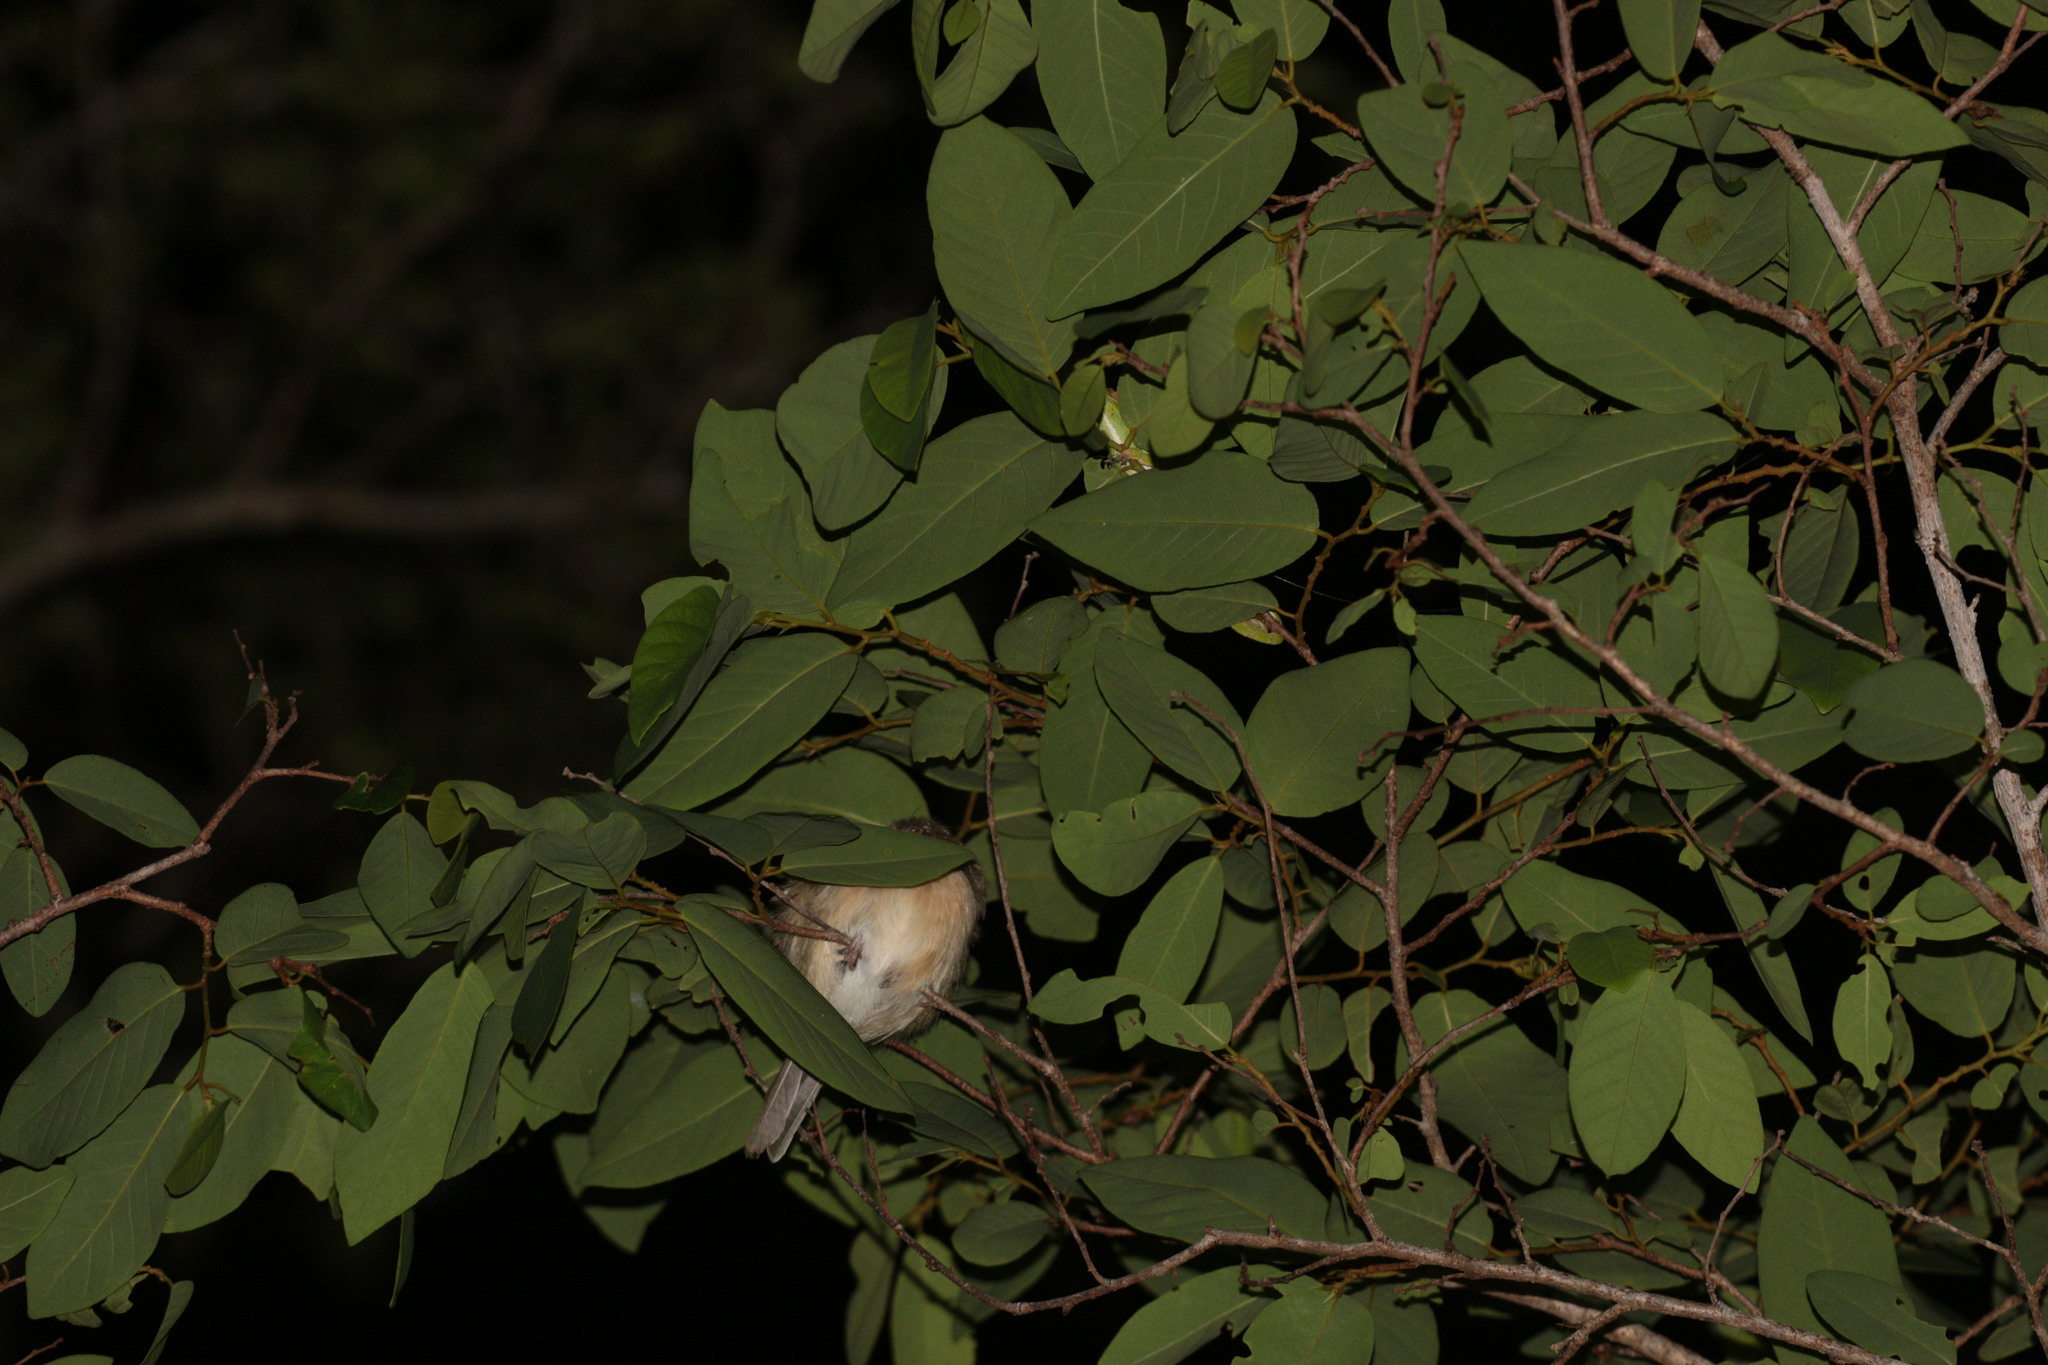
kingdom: Animalia
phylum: Chordata
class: Squamata
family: Chamaeleonidae
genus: Furcifer
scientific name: Furcifer labordi
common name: Laborde's chameleon
